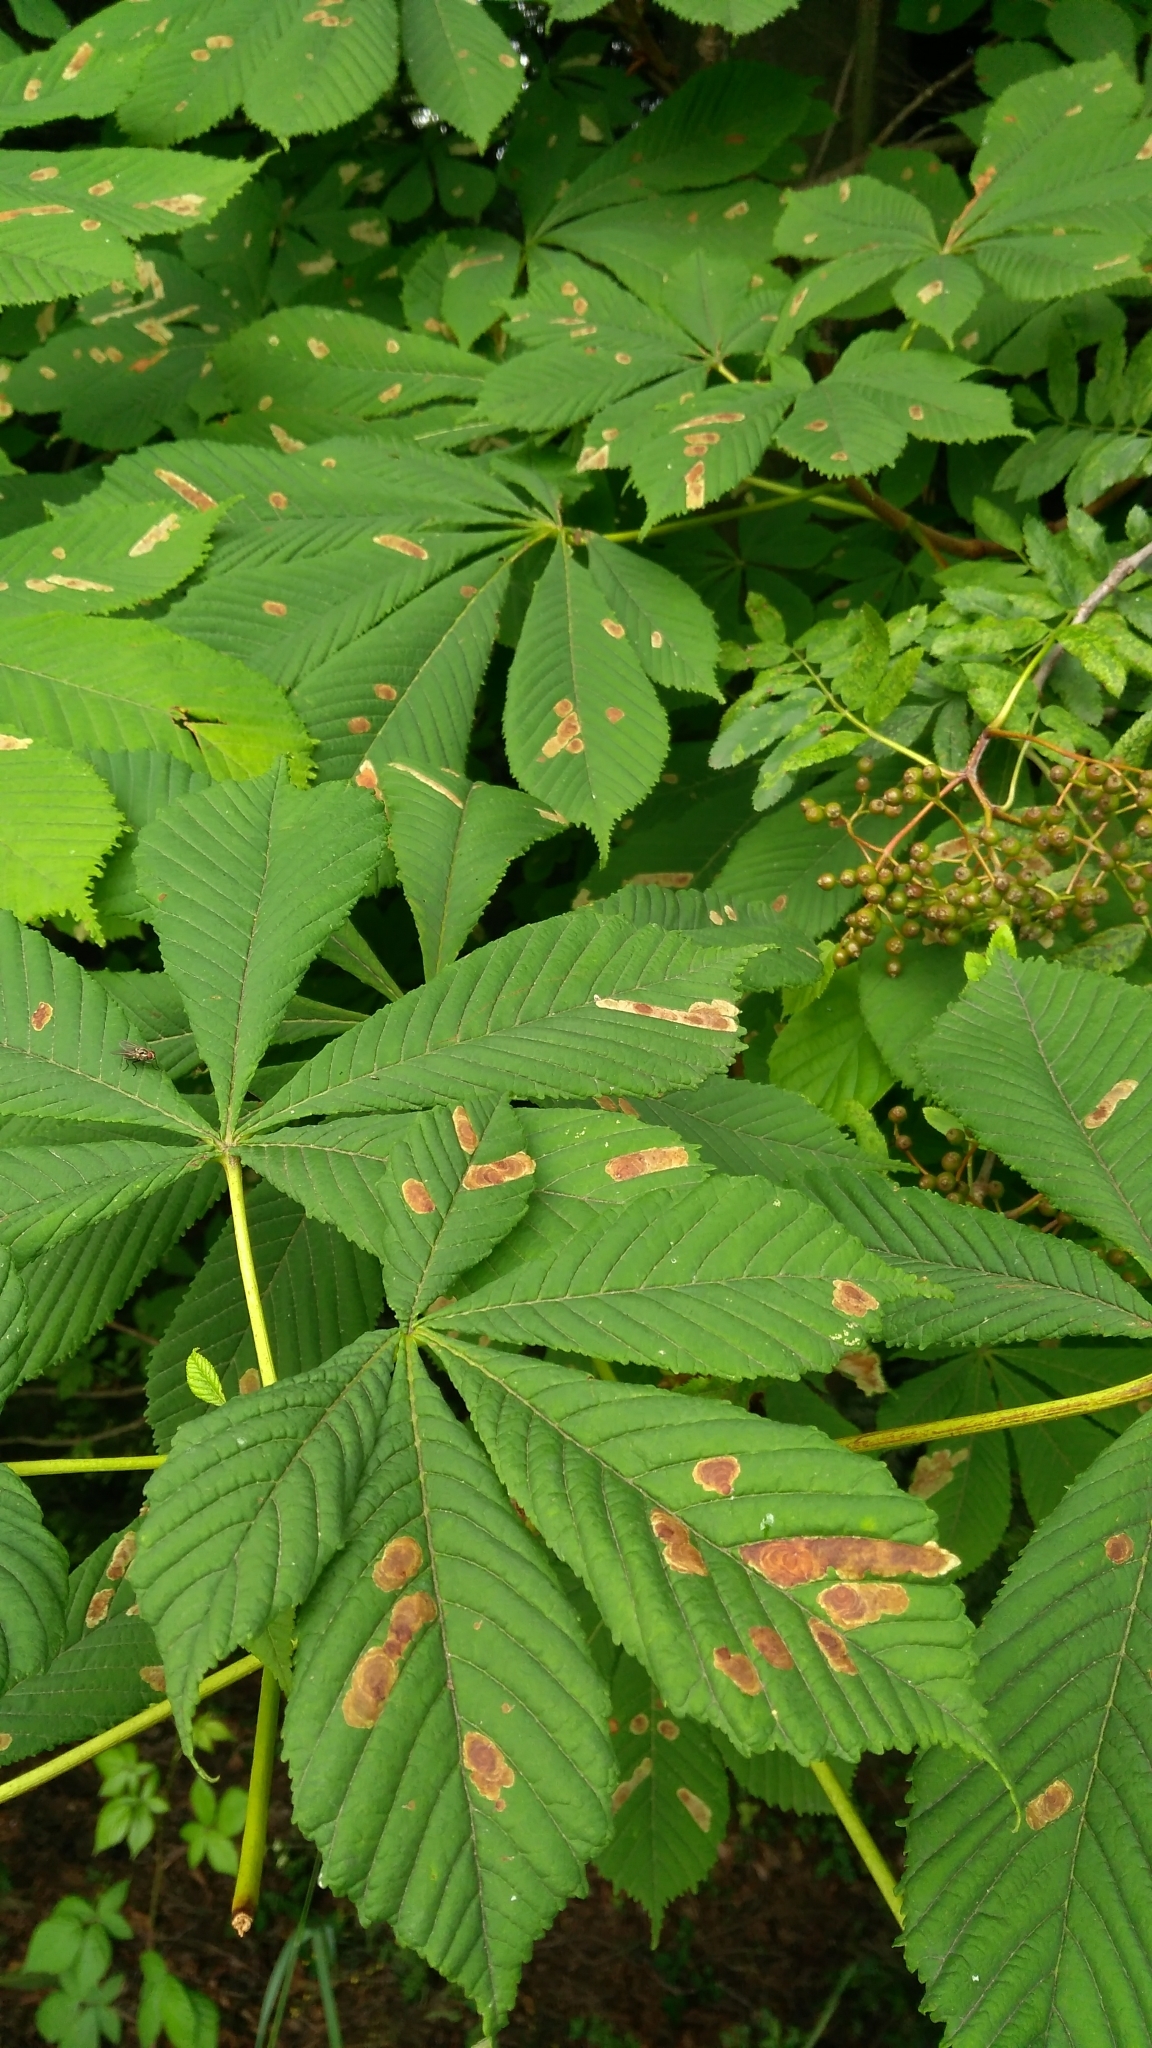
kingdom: Plantae
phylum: Tracheophyta
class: Magnoliopsida
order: Sapindales
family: Sapindaceae
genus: Aesculus
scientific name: Aesculus hippocastanum
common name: Horse-chestnut
